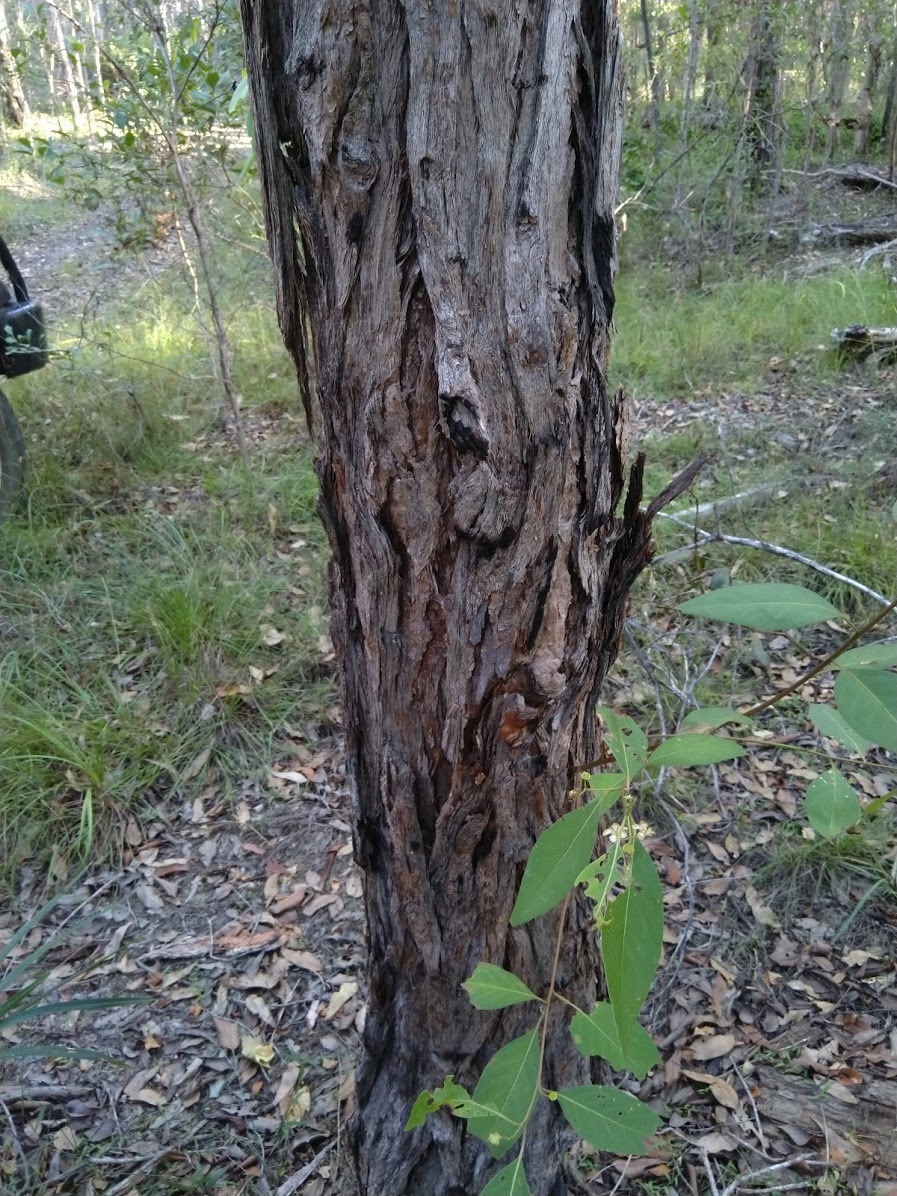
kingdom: Plantae
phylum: Tracheophyta
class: Magnoliopsida
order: Myrtales
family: Myrtaceae
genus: Lophostemon
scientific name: Lophostemon suaveolens
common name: Paperbark-mahogany
